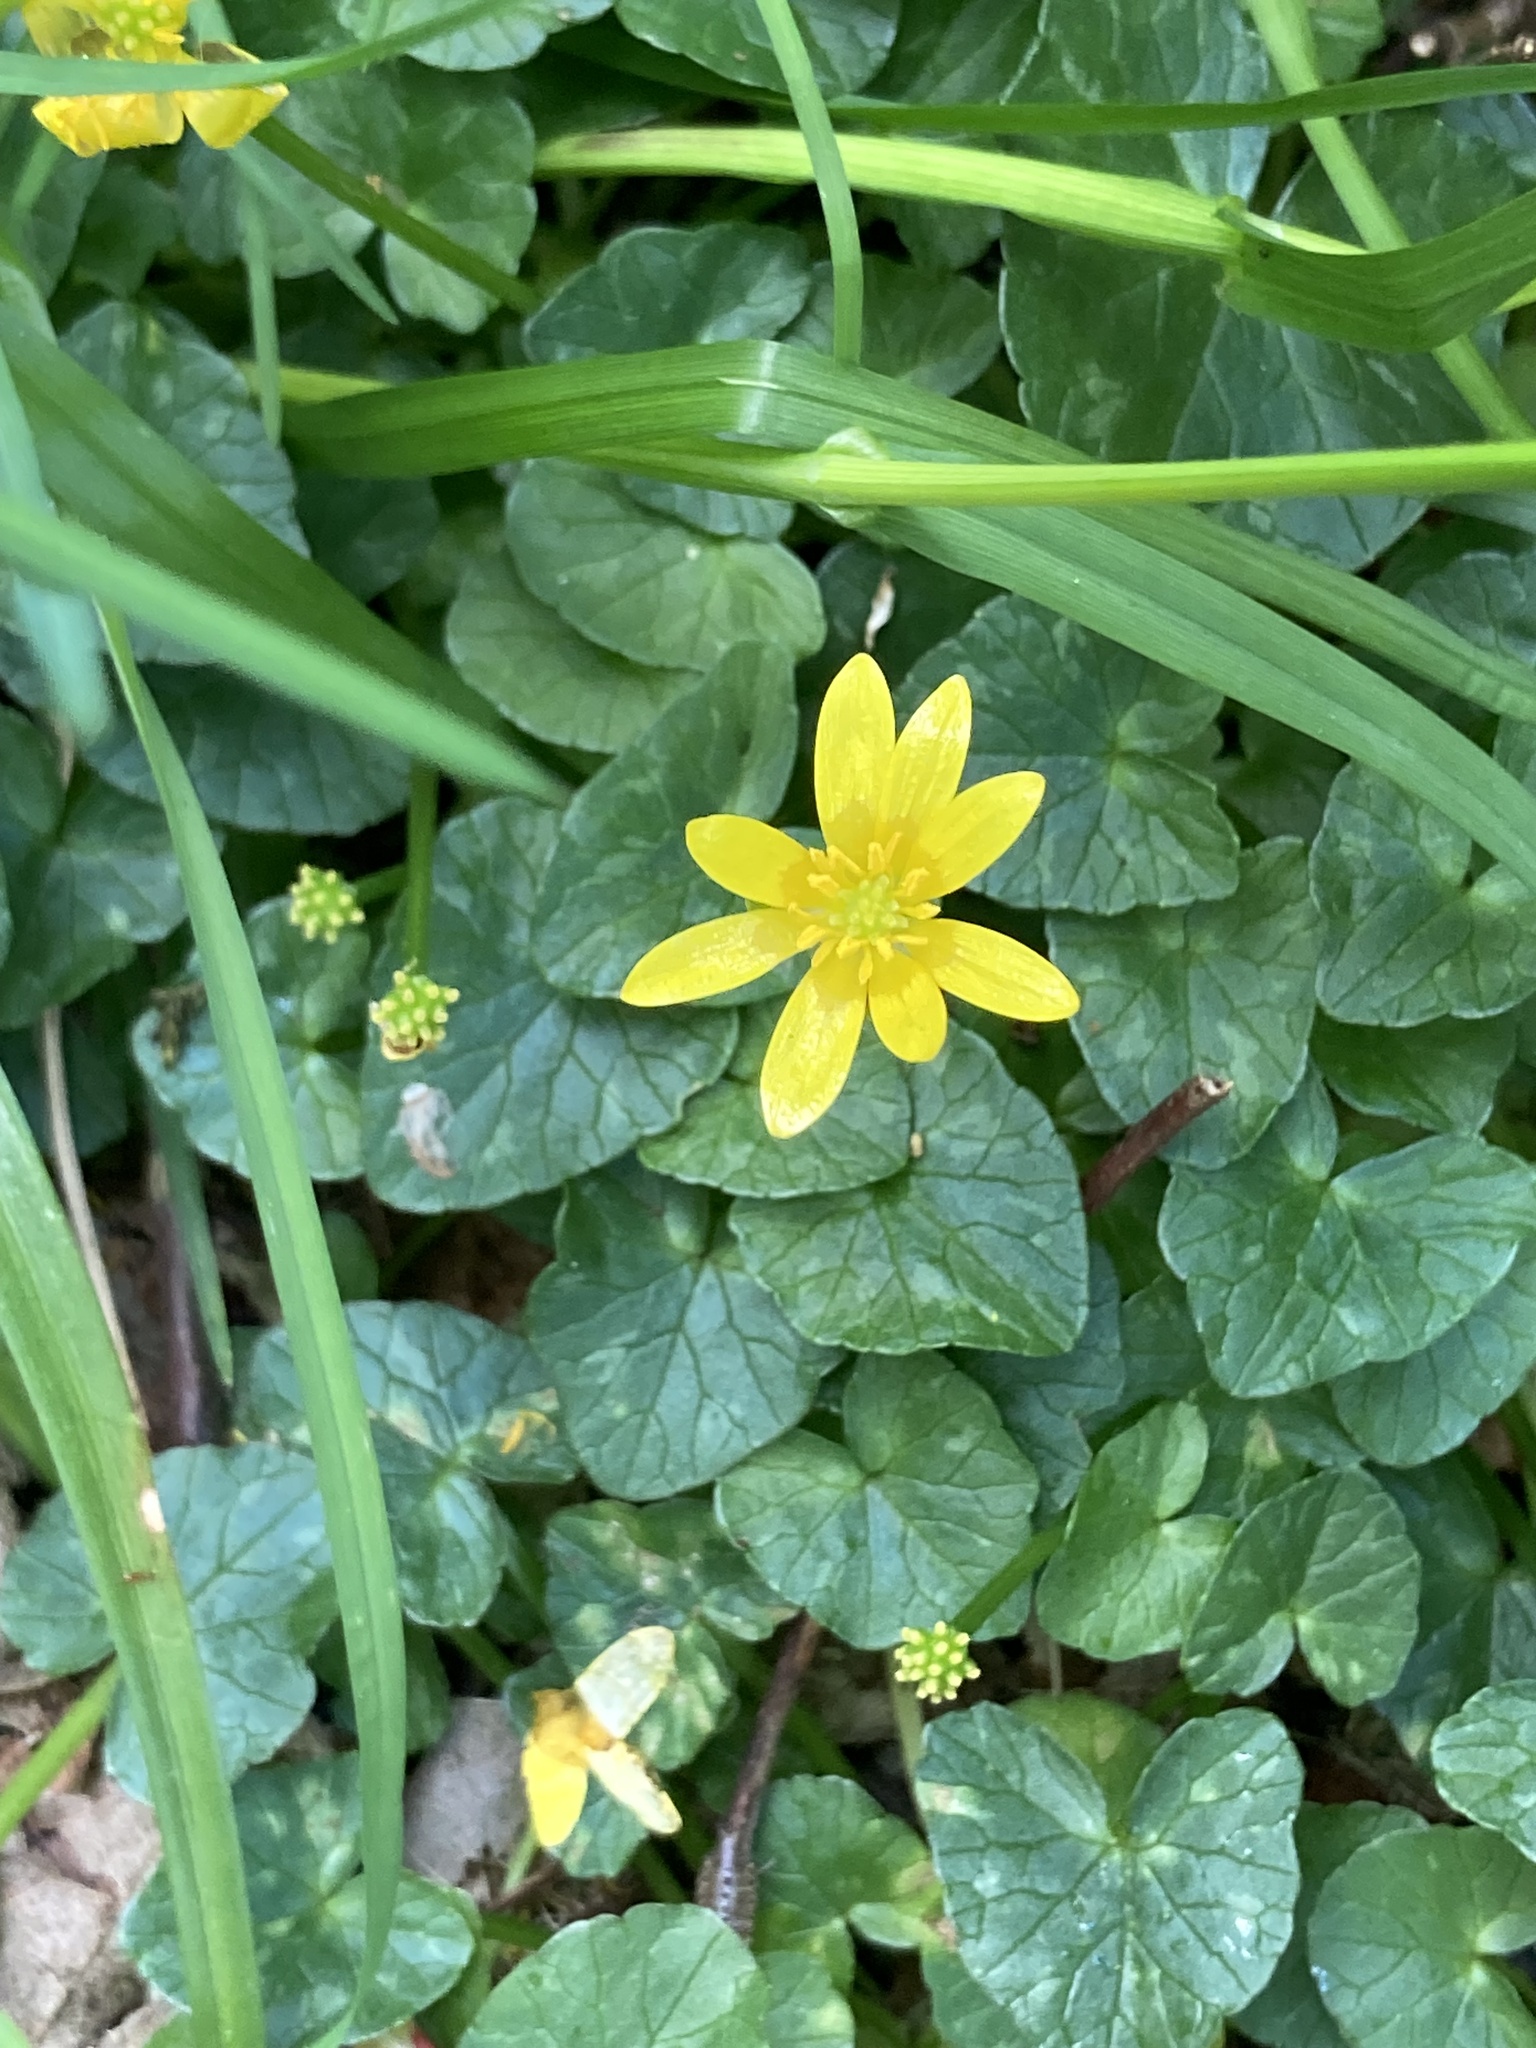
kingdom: Plantae
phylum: Tracheophyta
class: Magnoliopsida
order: Ranunculales
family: Ranunculaceae
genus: Ficaria
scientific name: Ficaria verna
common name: Lesser celandine
